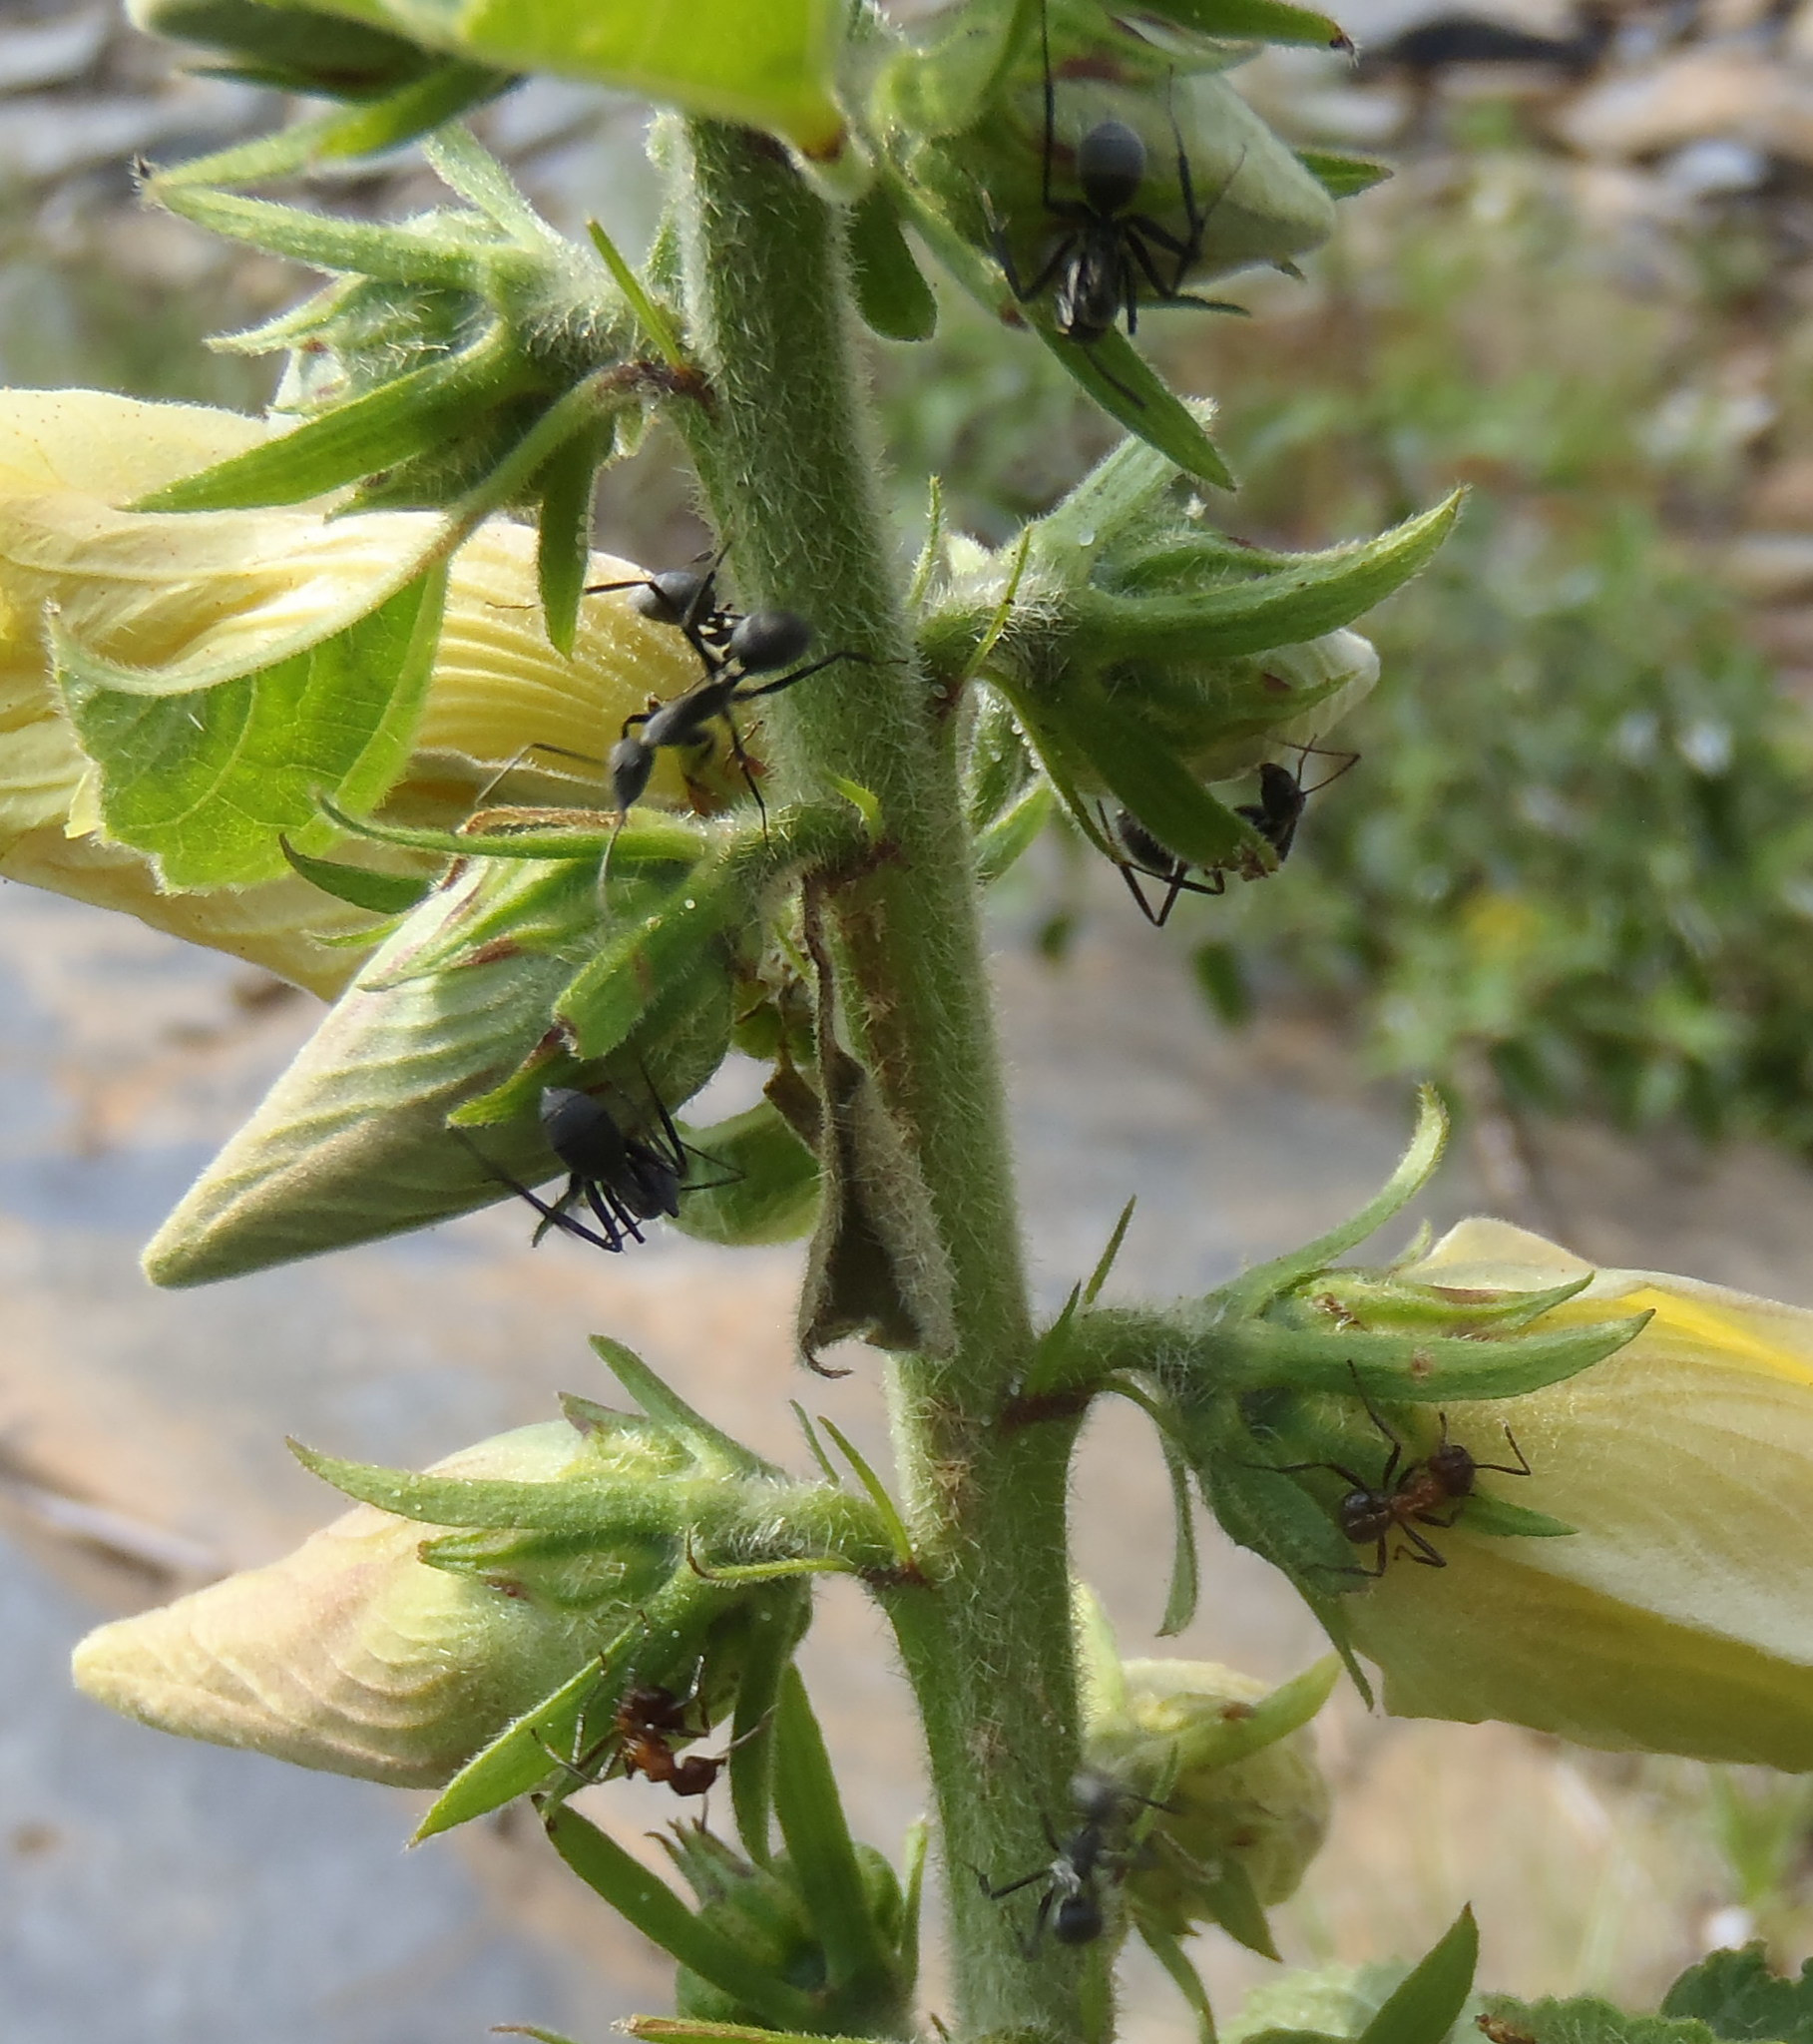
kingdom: Animalia
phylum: Arthropoda
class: Insecta
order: Hymenoptera
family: Formicidae
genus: Camponotus
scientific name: Camponotus eugeniae
